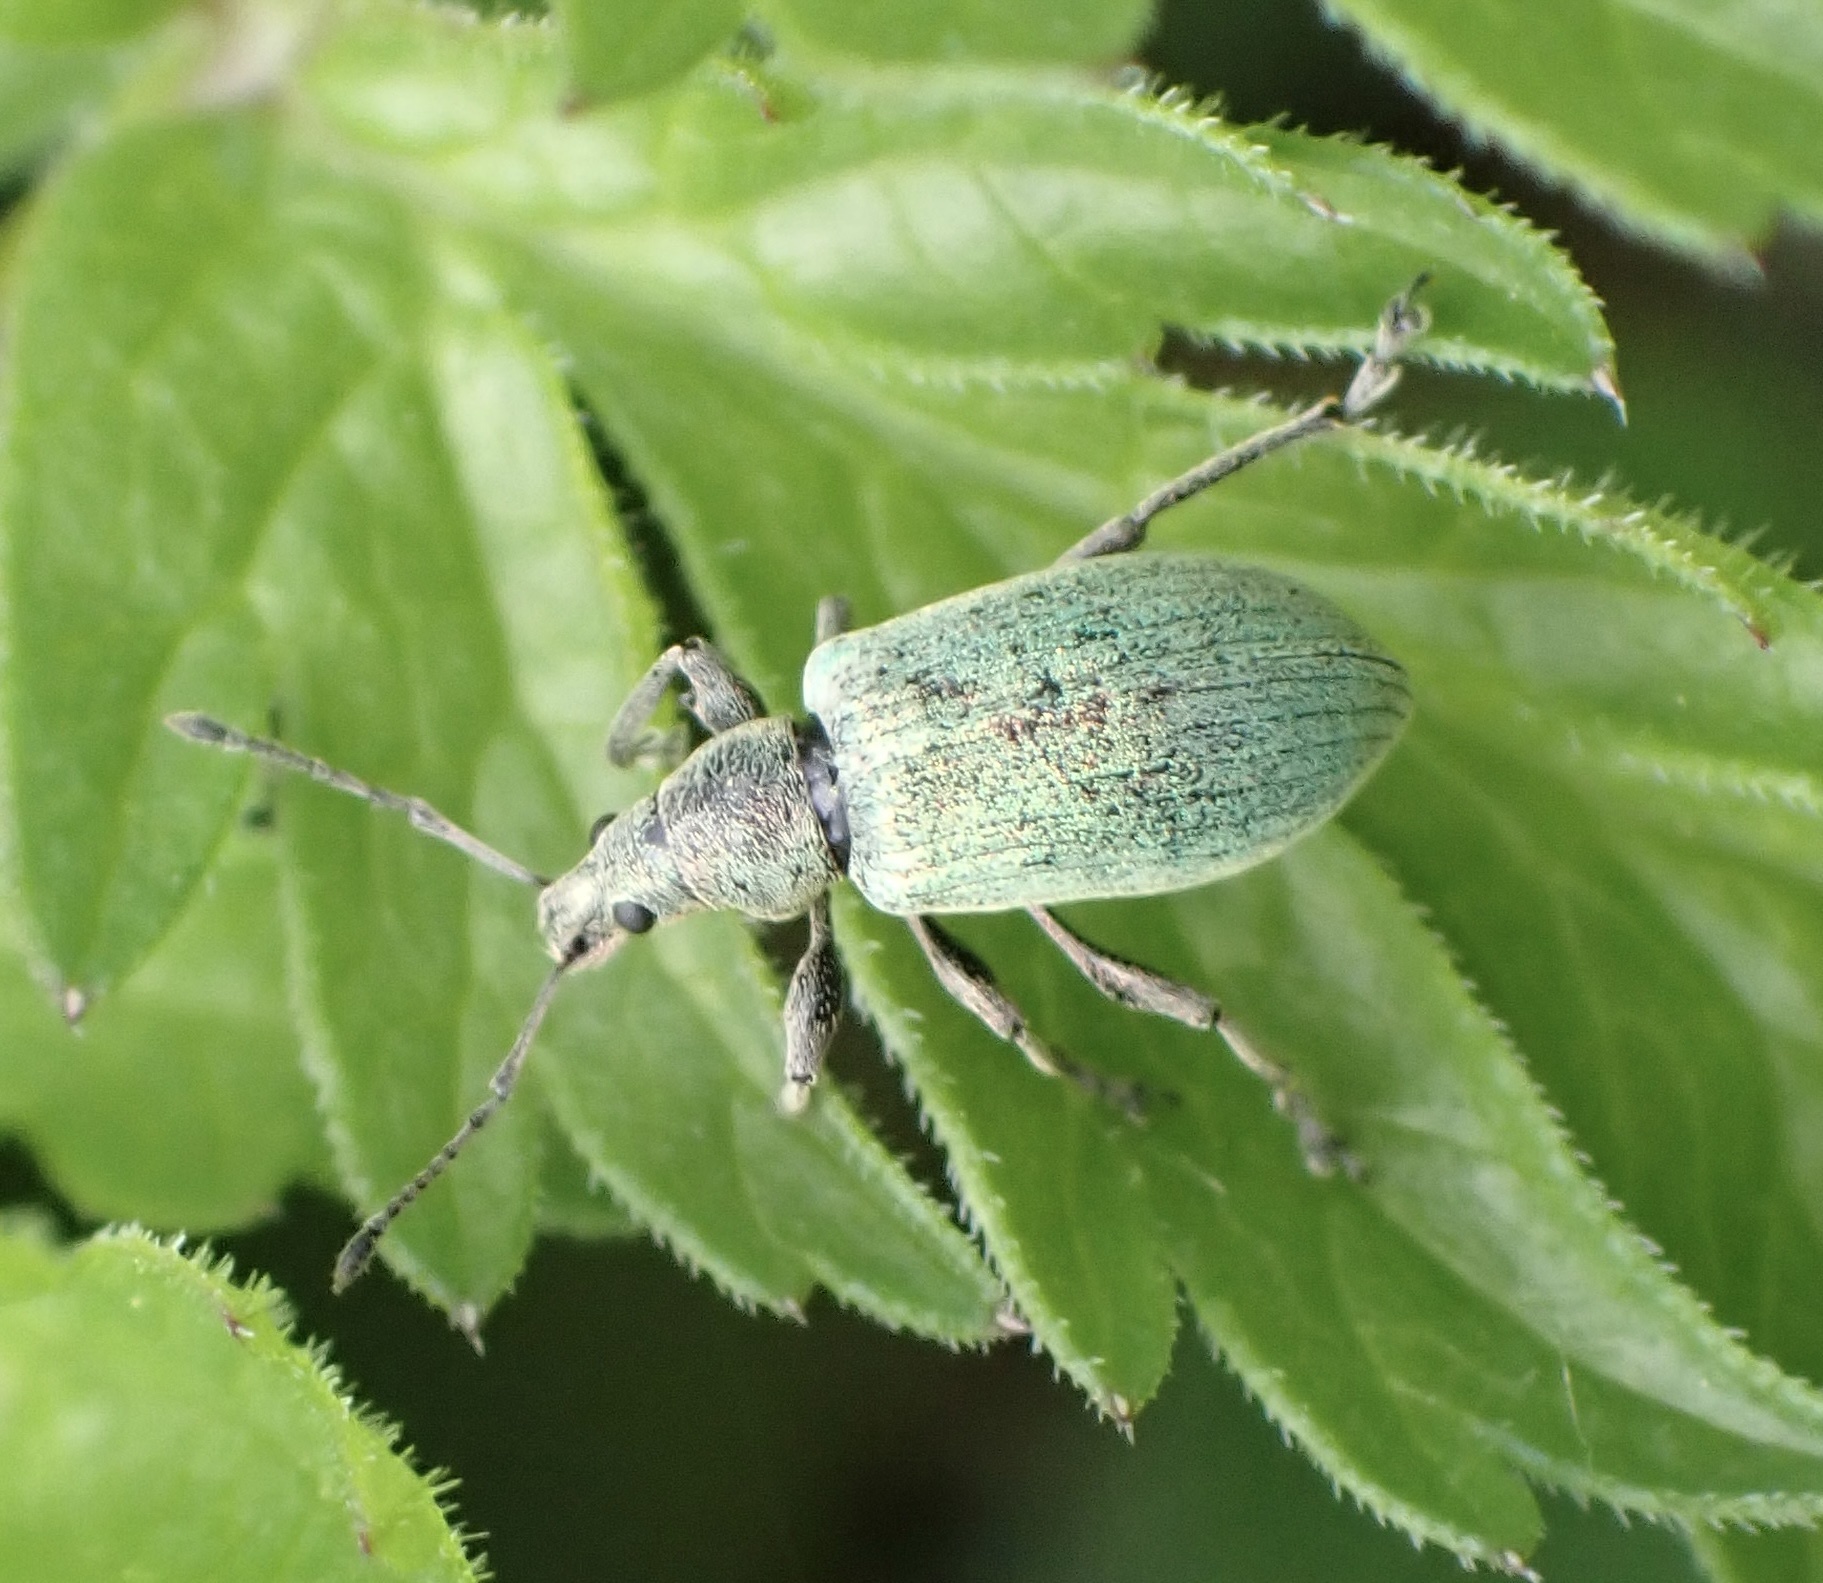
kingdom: Animalia
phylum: Arthropoda
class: Insecta
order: Coleoptera
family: Curculionidae
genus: Phyllobius
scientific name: Phyllobius pomaceus
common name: Green nettle weevil
